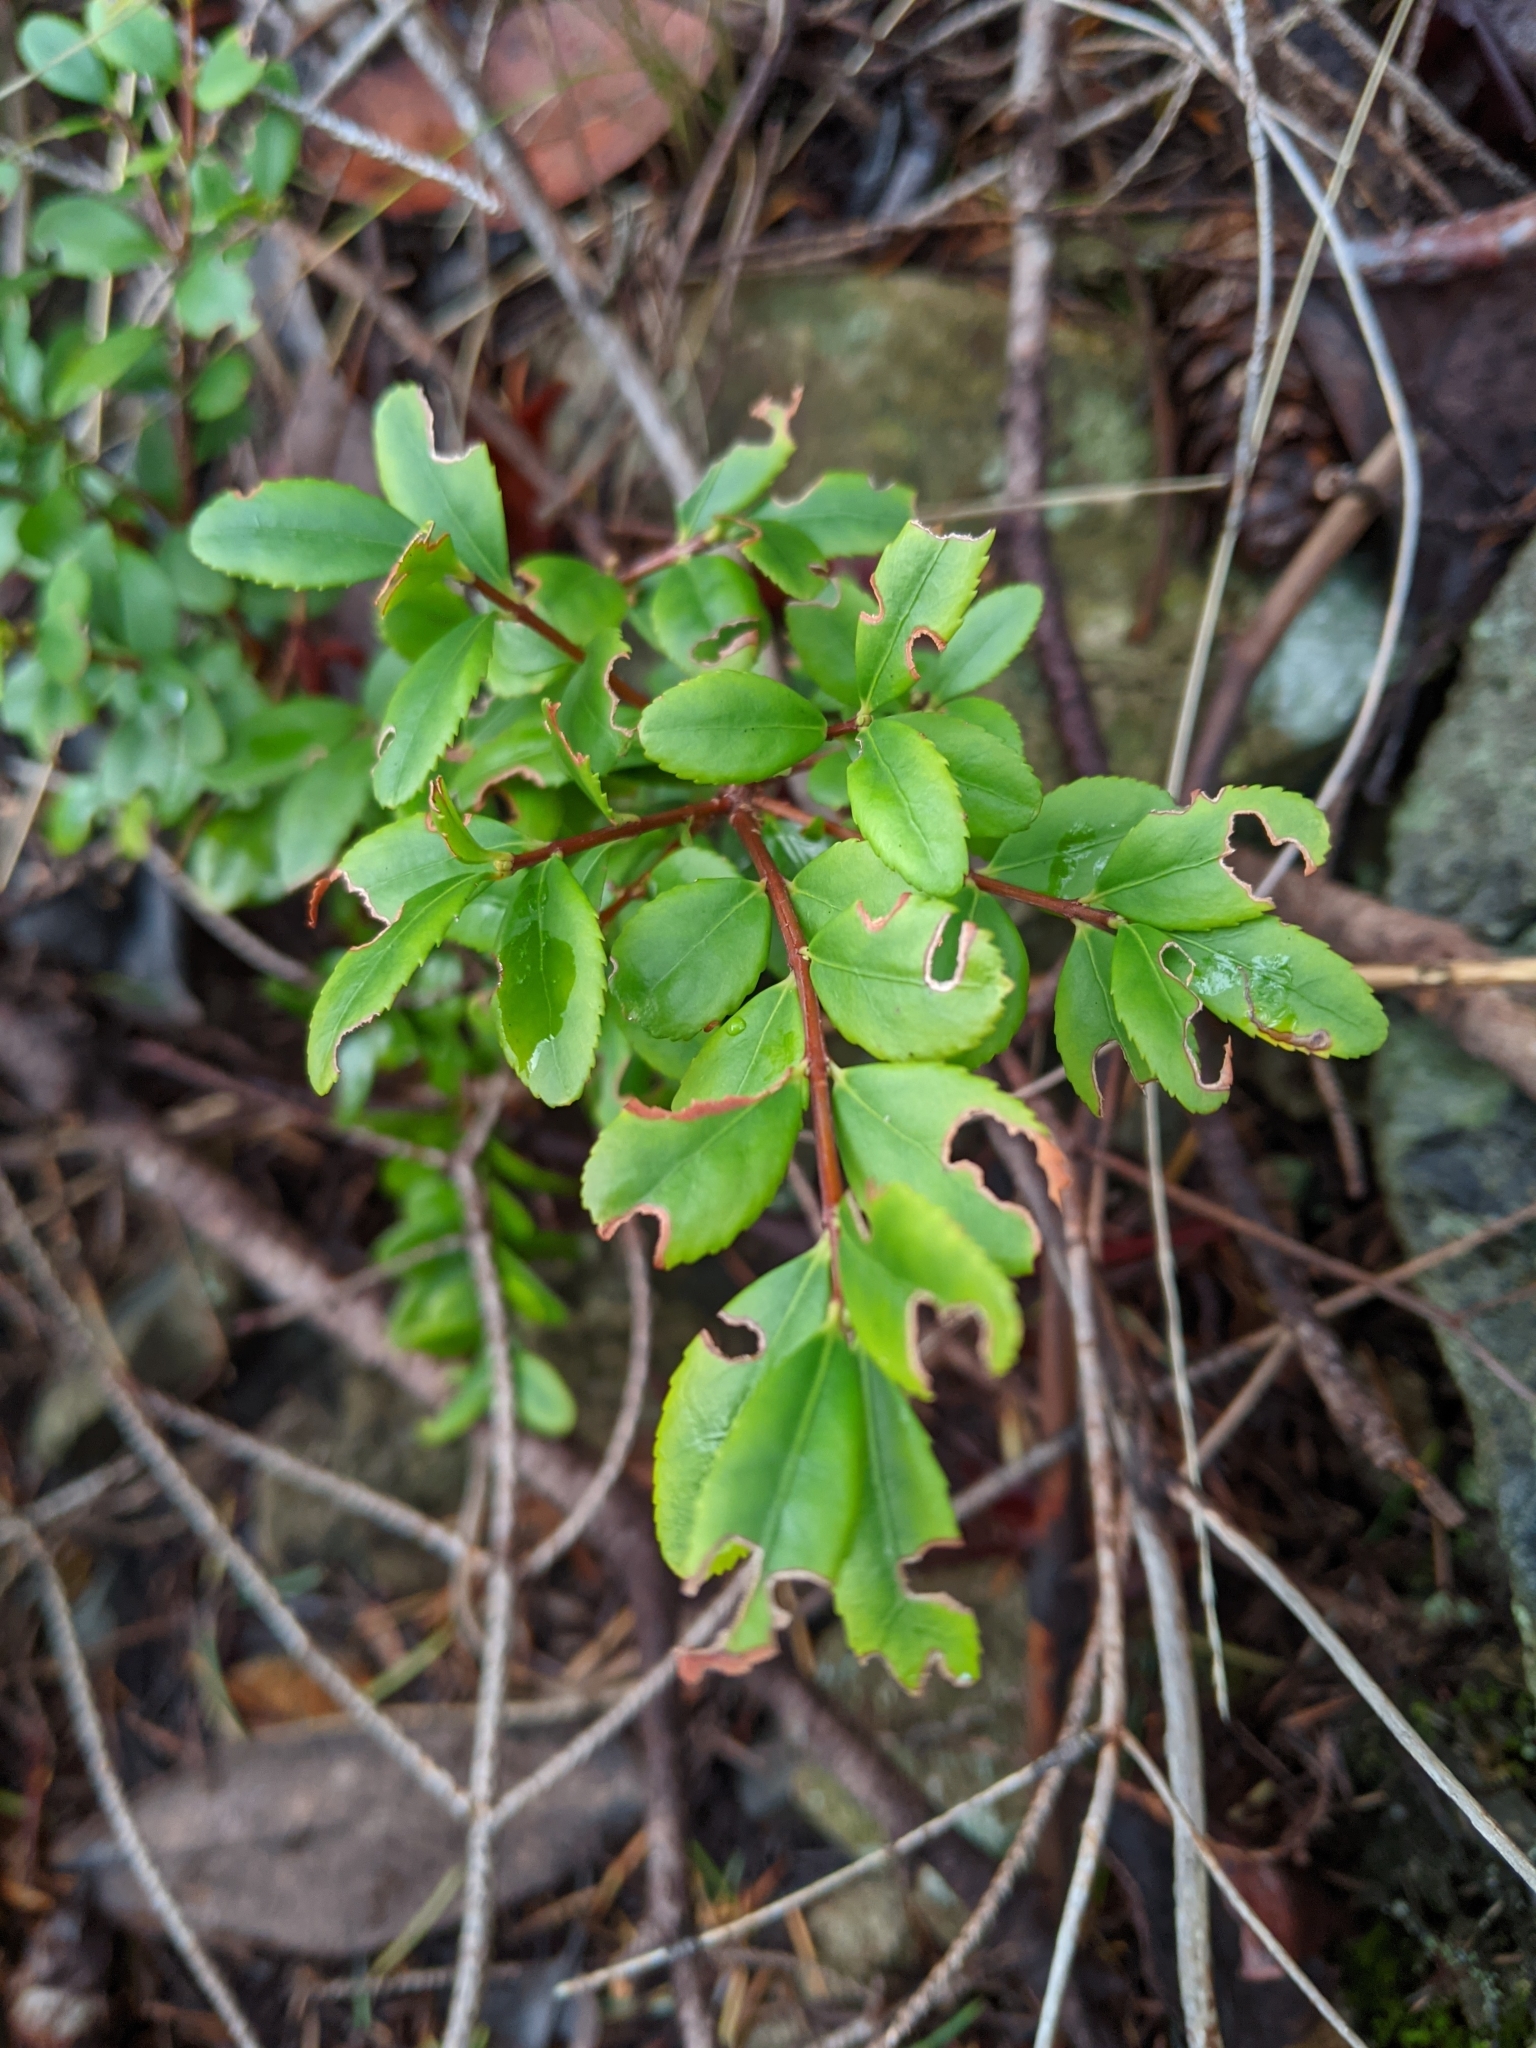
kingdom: Plantae
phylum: Tracheophyta
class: Magnoliopsida
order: Celastrales
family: Celastraceae
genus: Paxistima
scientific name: Paxistima myrsinites
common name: Mountain-lover
